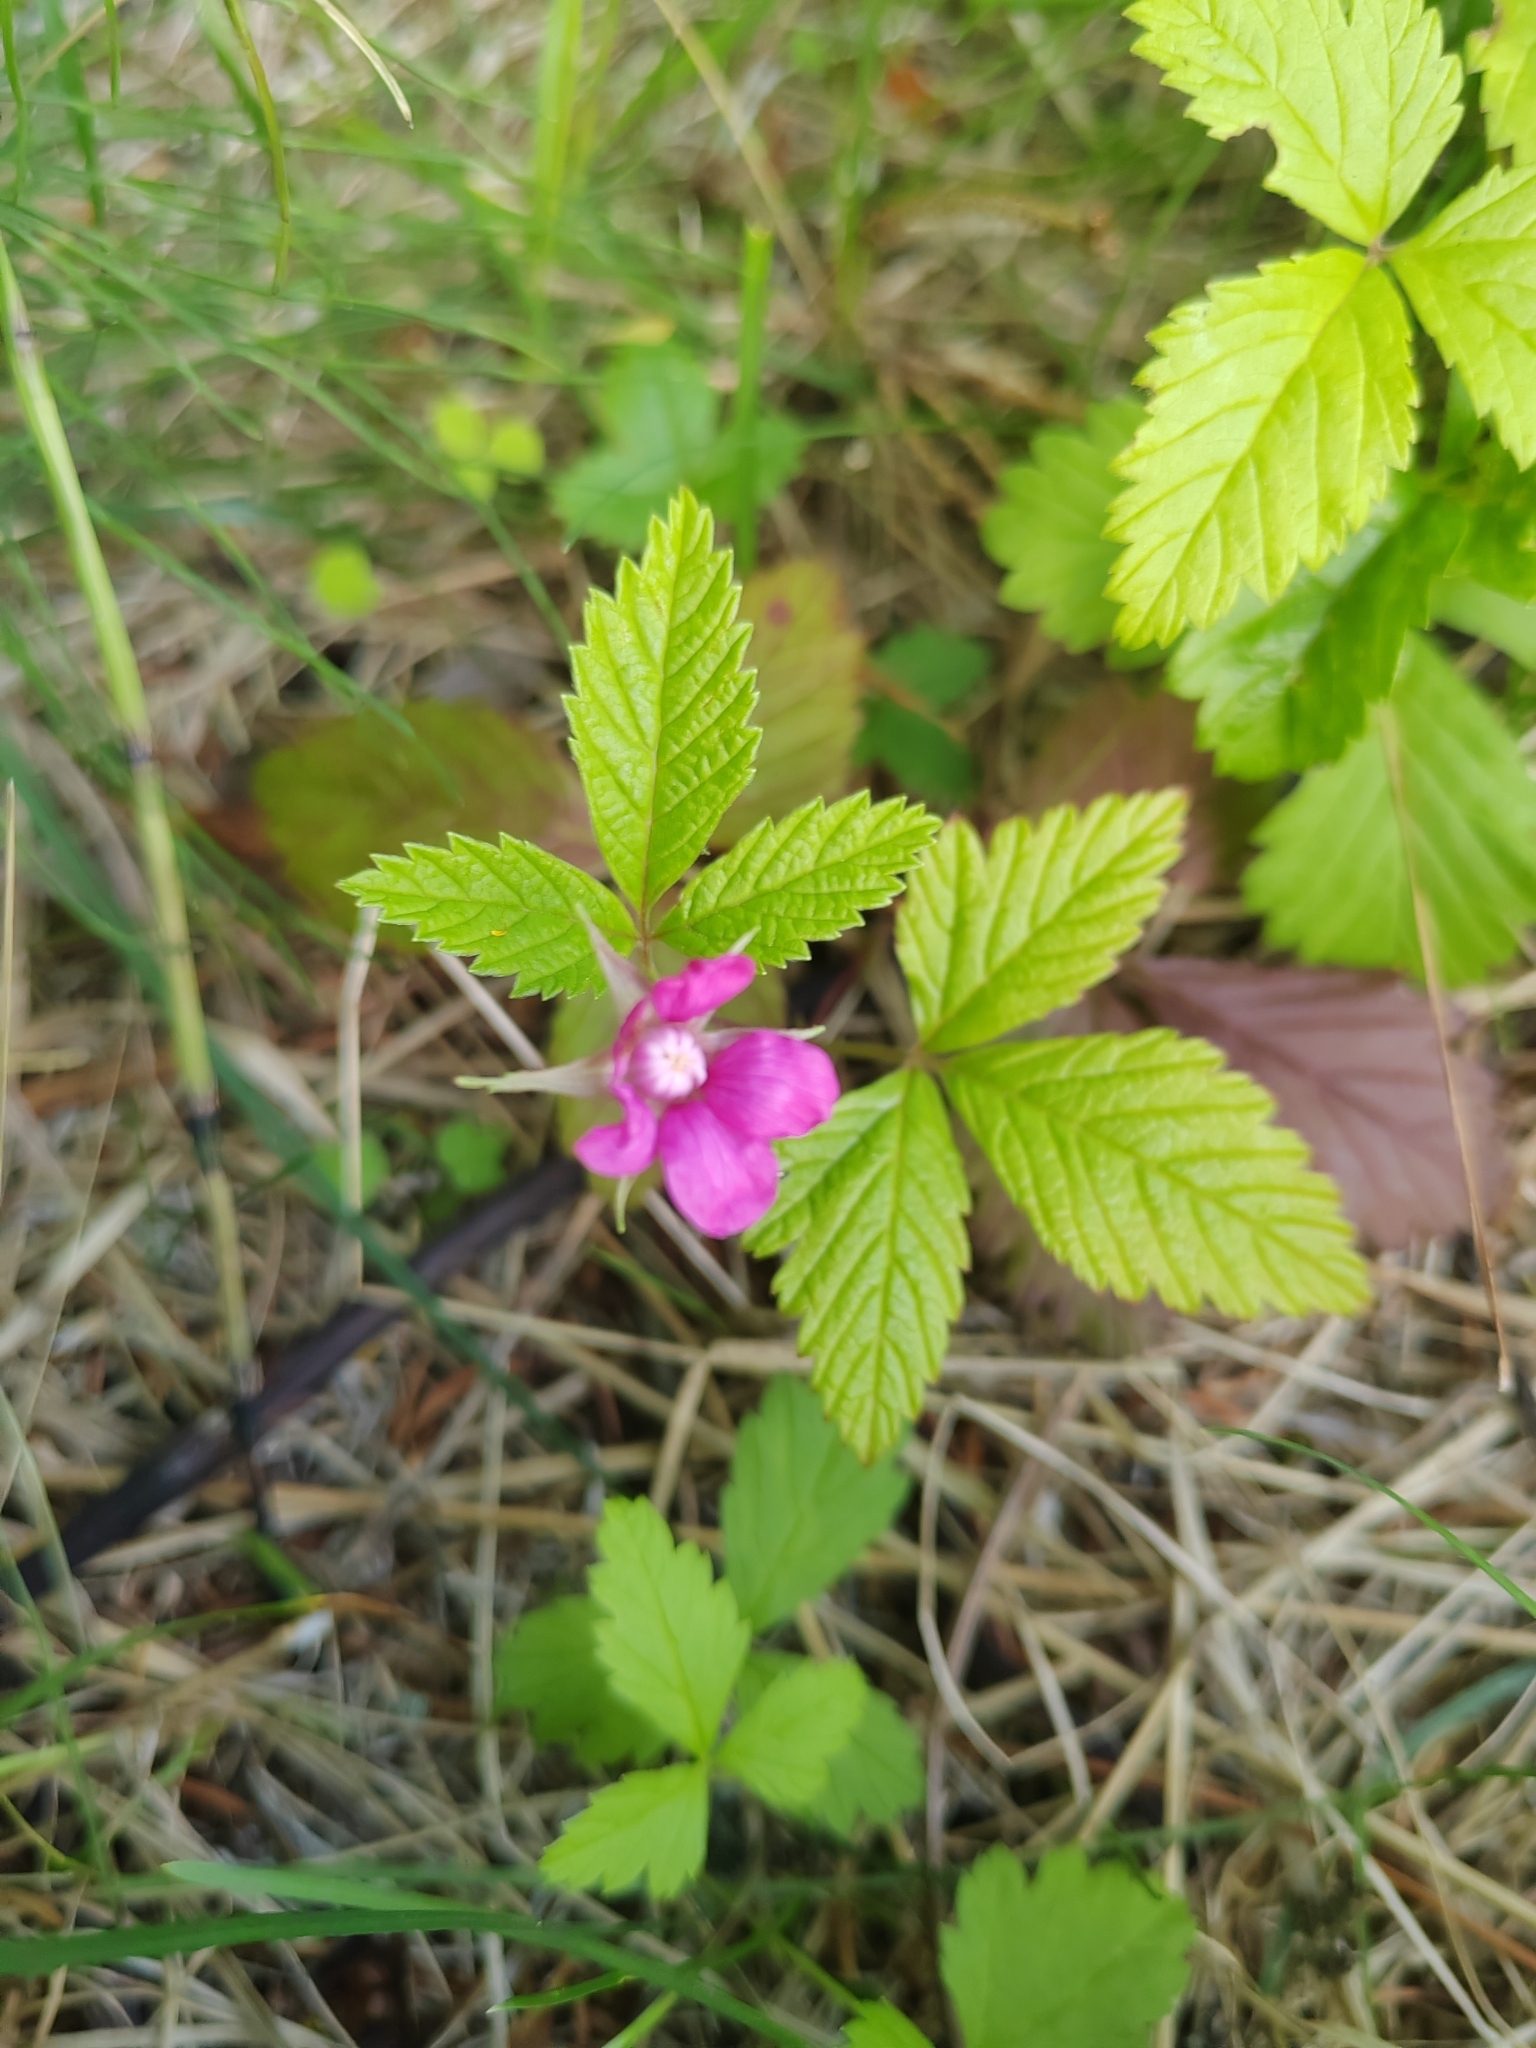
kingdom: Plantae
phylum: Tracheophyta
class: Magnoliopsida
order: Rosales
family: Rosaceae
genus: Rubus
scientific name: Rubus arcticus
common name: Arctic bramble
